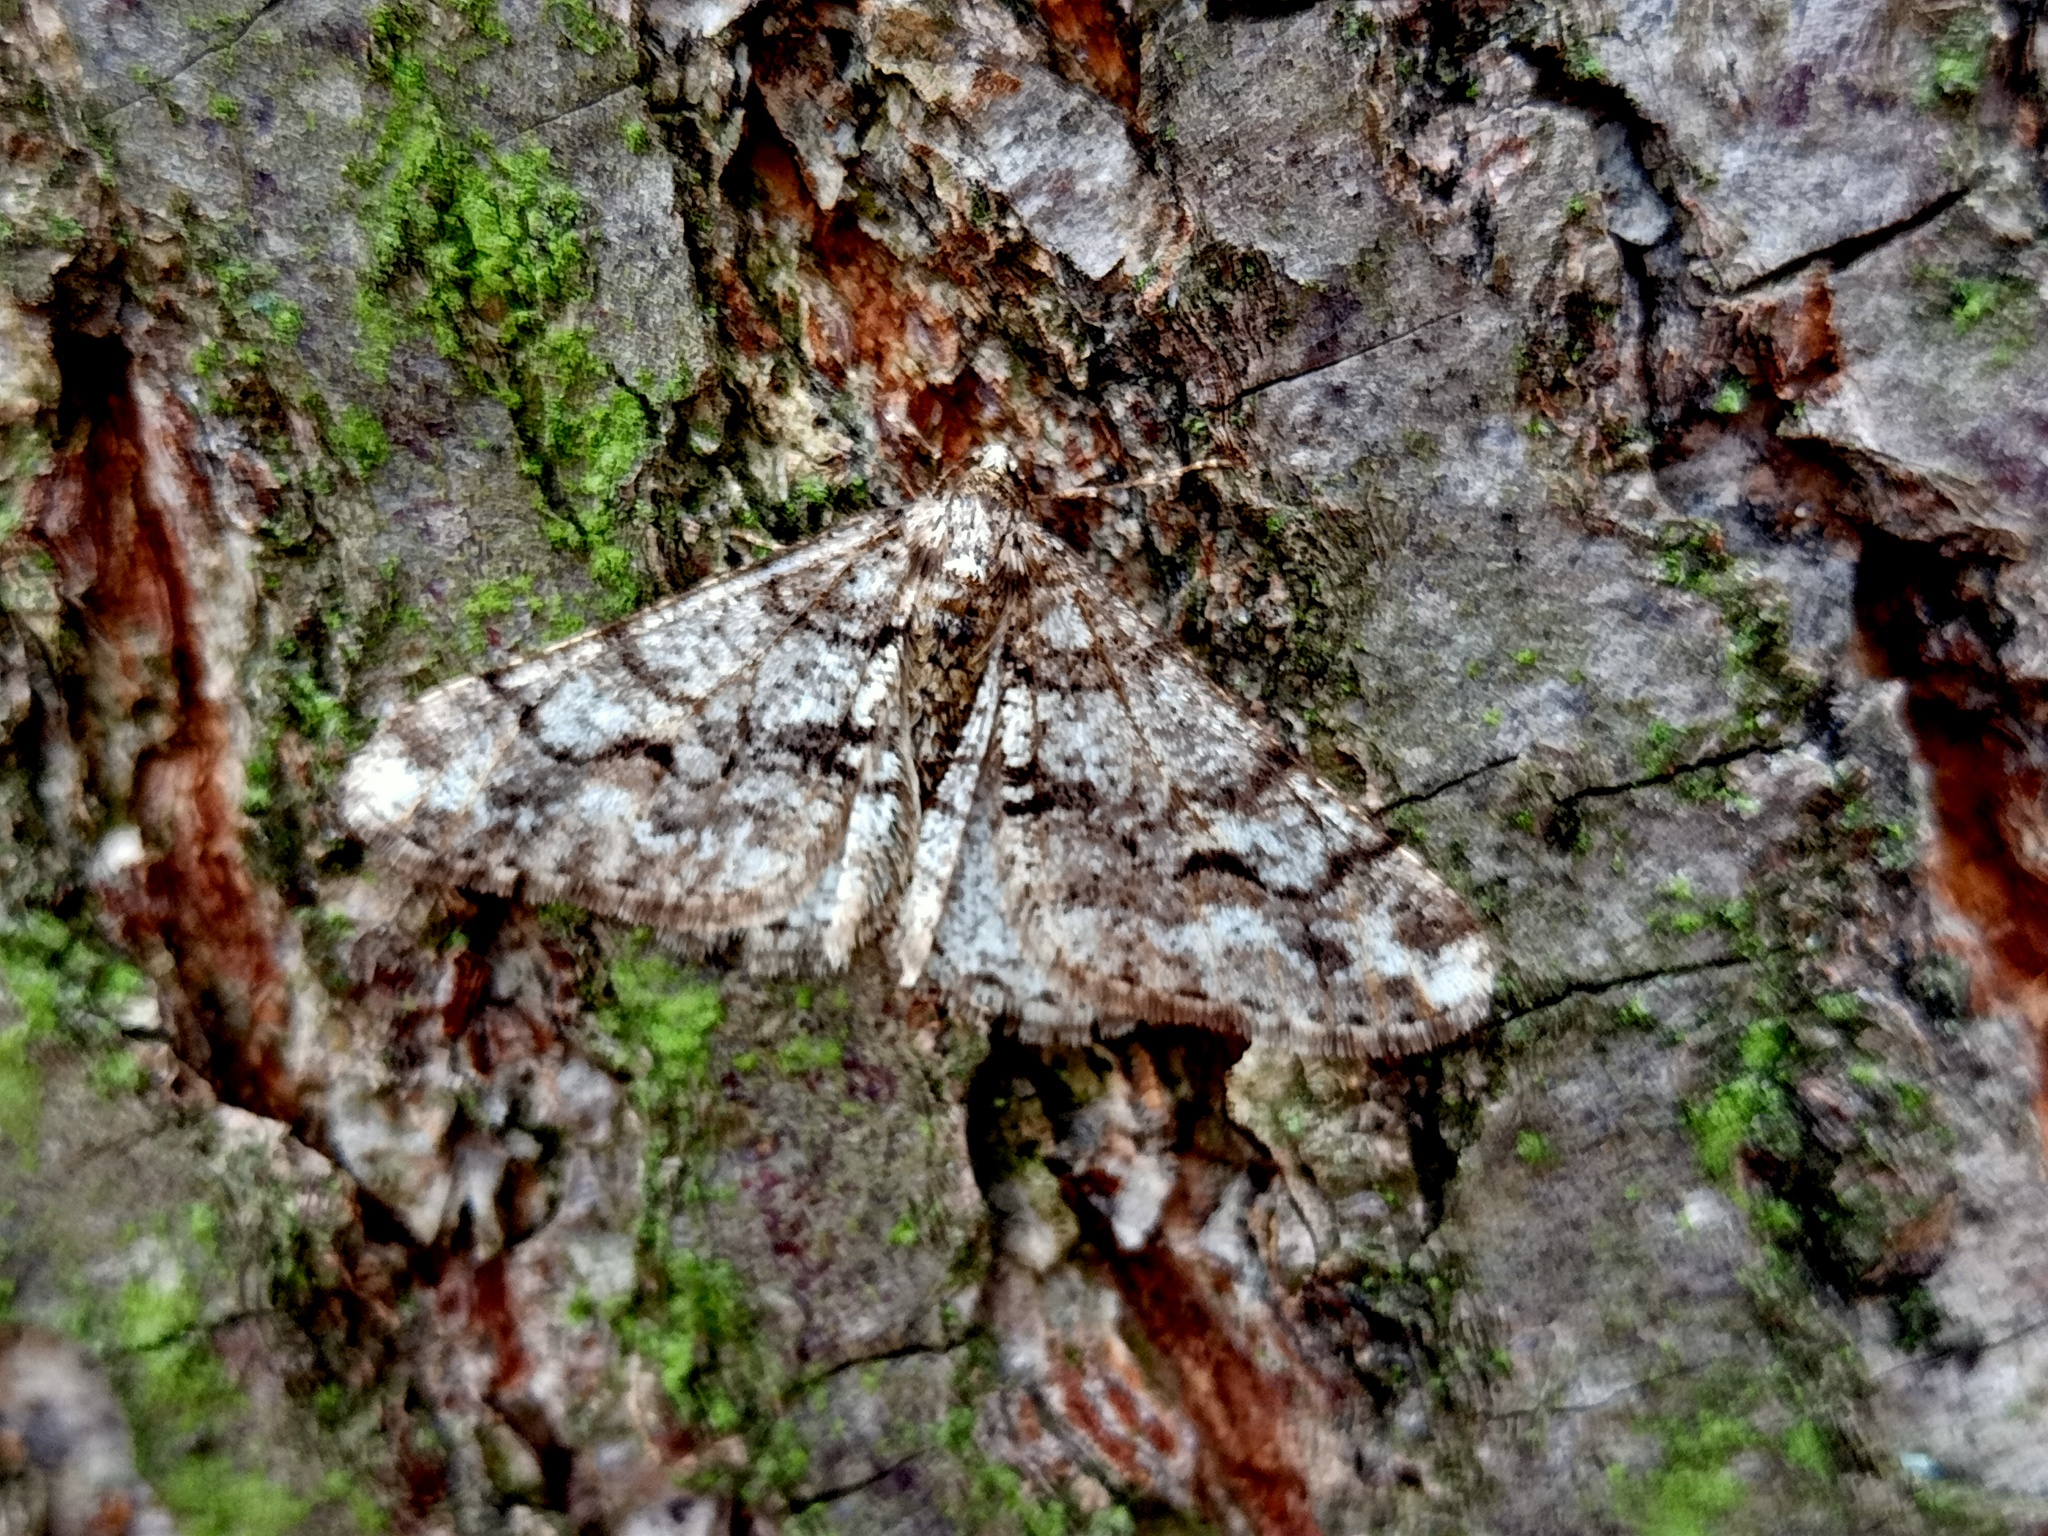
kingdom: Animalia
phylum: Arthropoda
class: Insecta
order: Lepidoptera
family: Geometridae
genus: Agriopis
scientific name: Agriopis leucophaearia
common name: Spring usher
